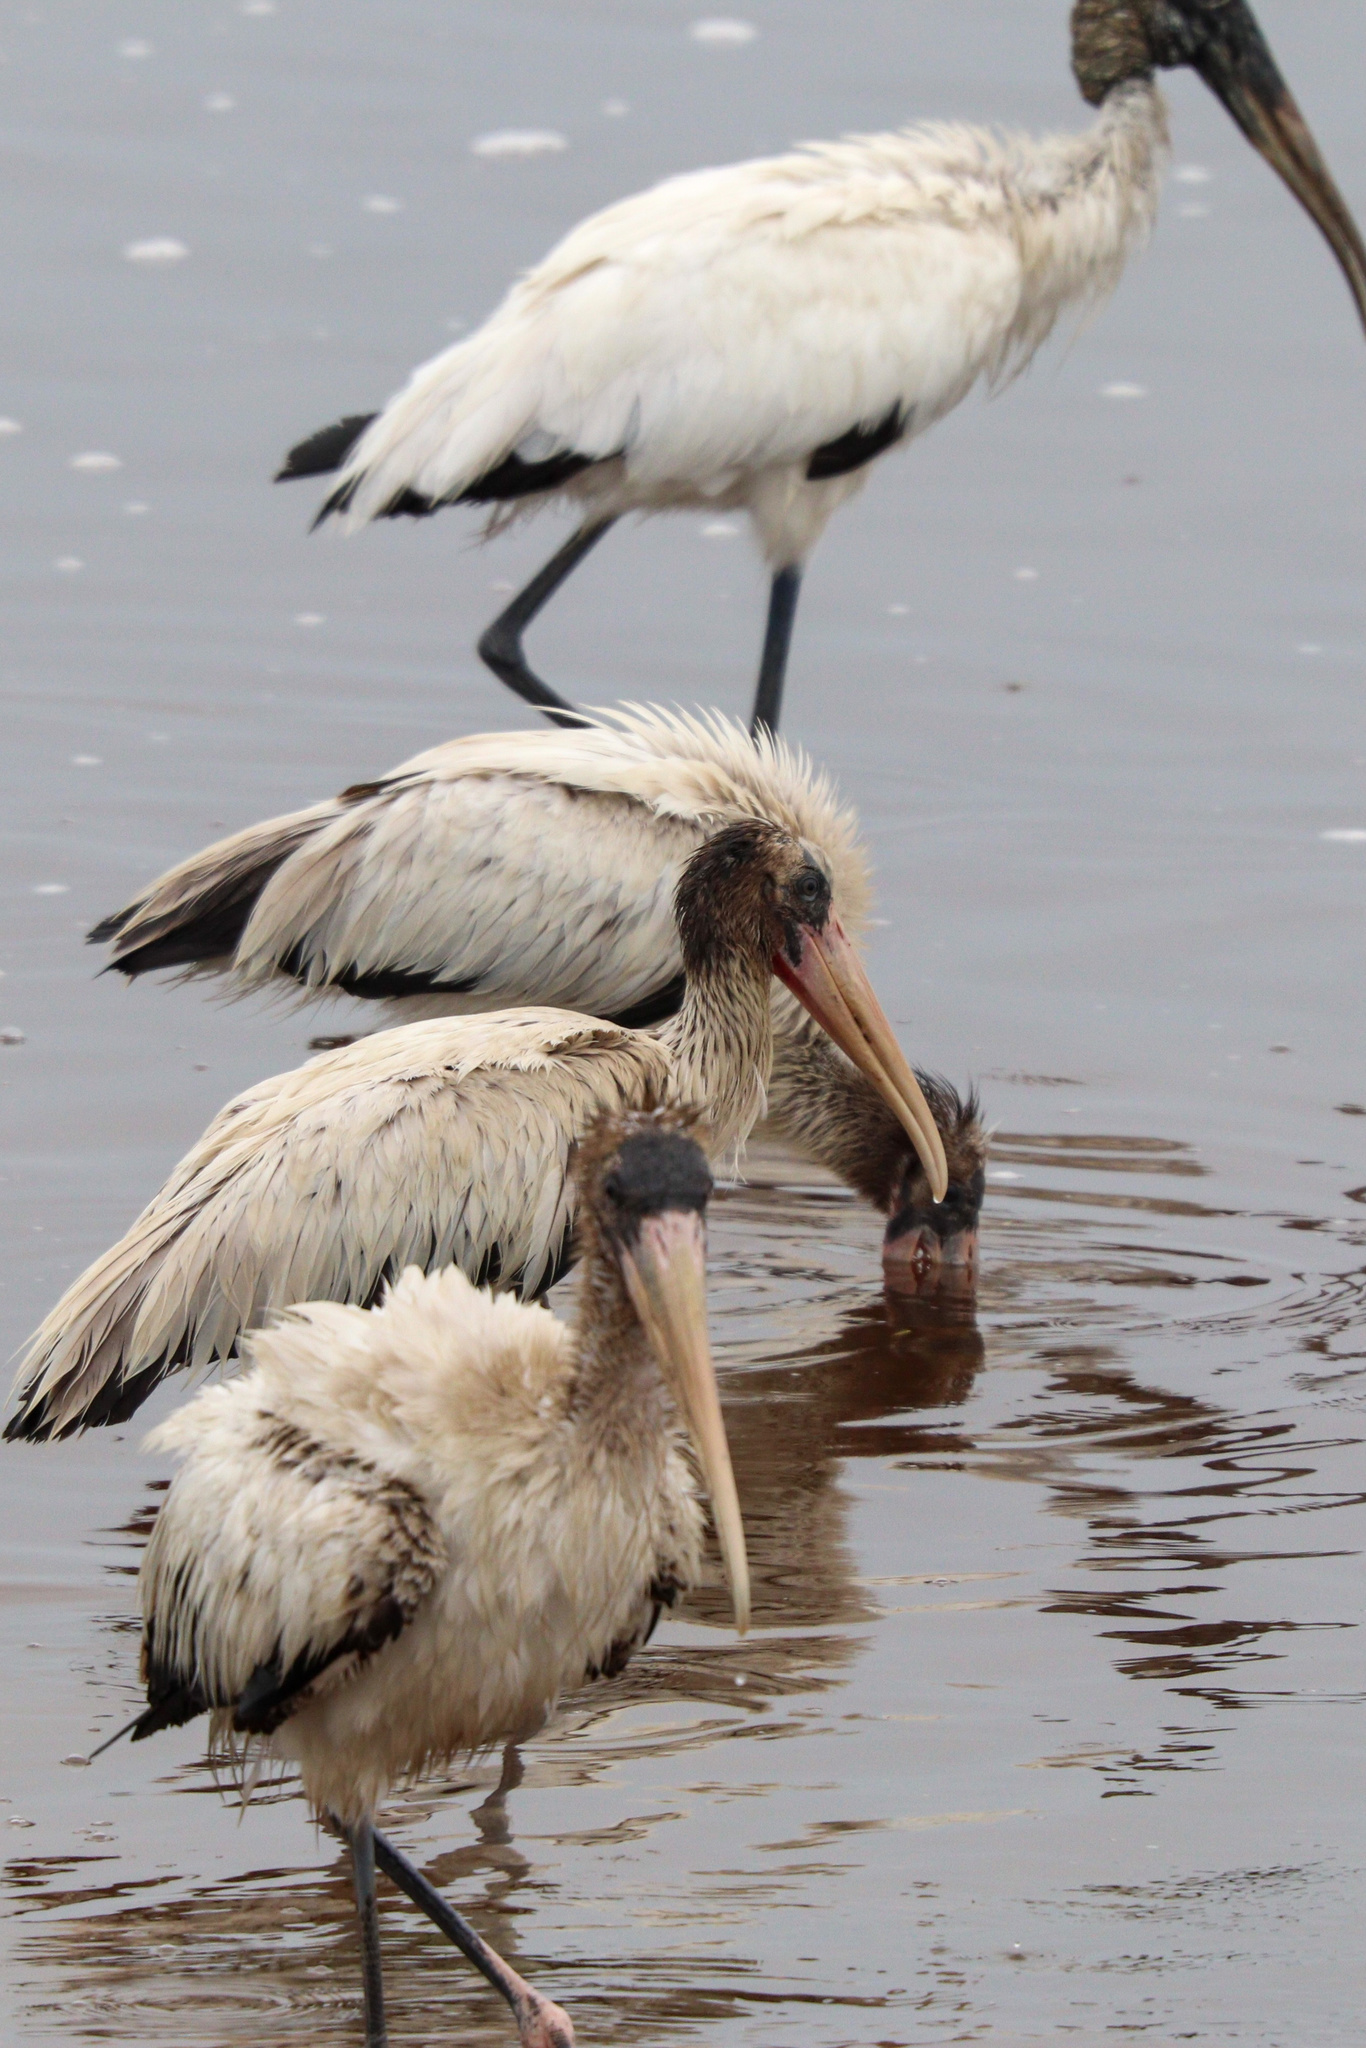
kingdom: Animalia
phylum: Chordata
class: Aves
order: Ciconiiformes
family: Ciconiidae
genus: Mycteria
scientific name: Mycteria americana
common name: Wood stork
